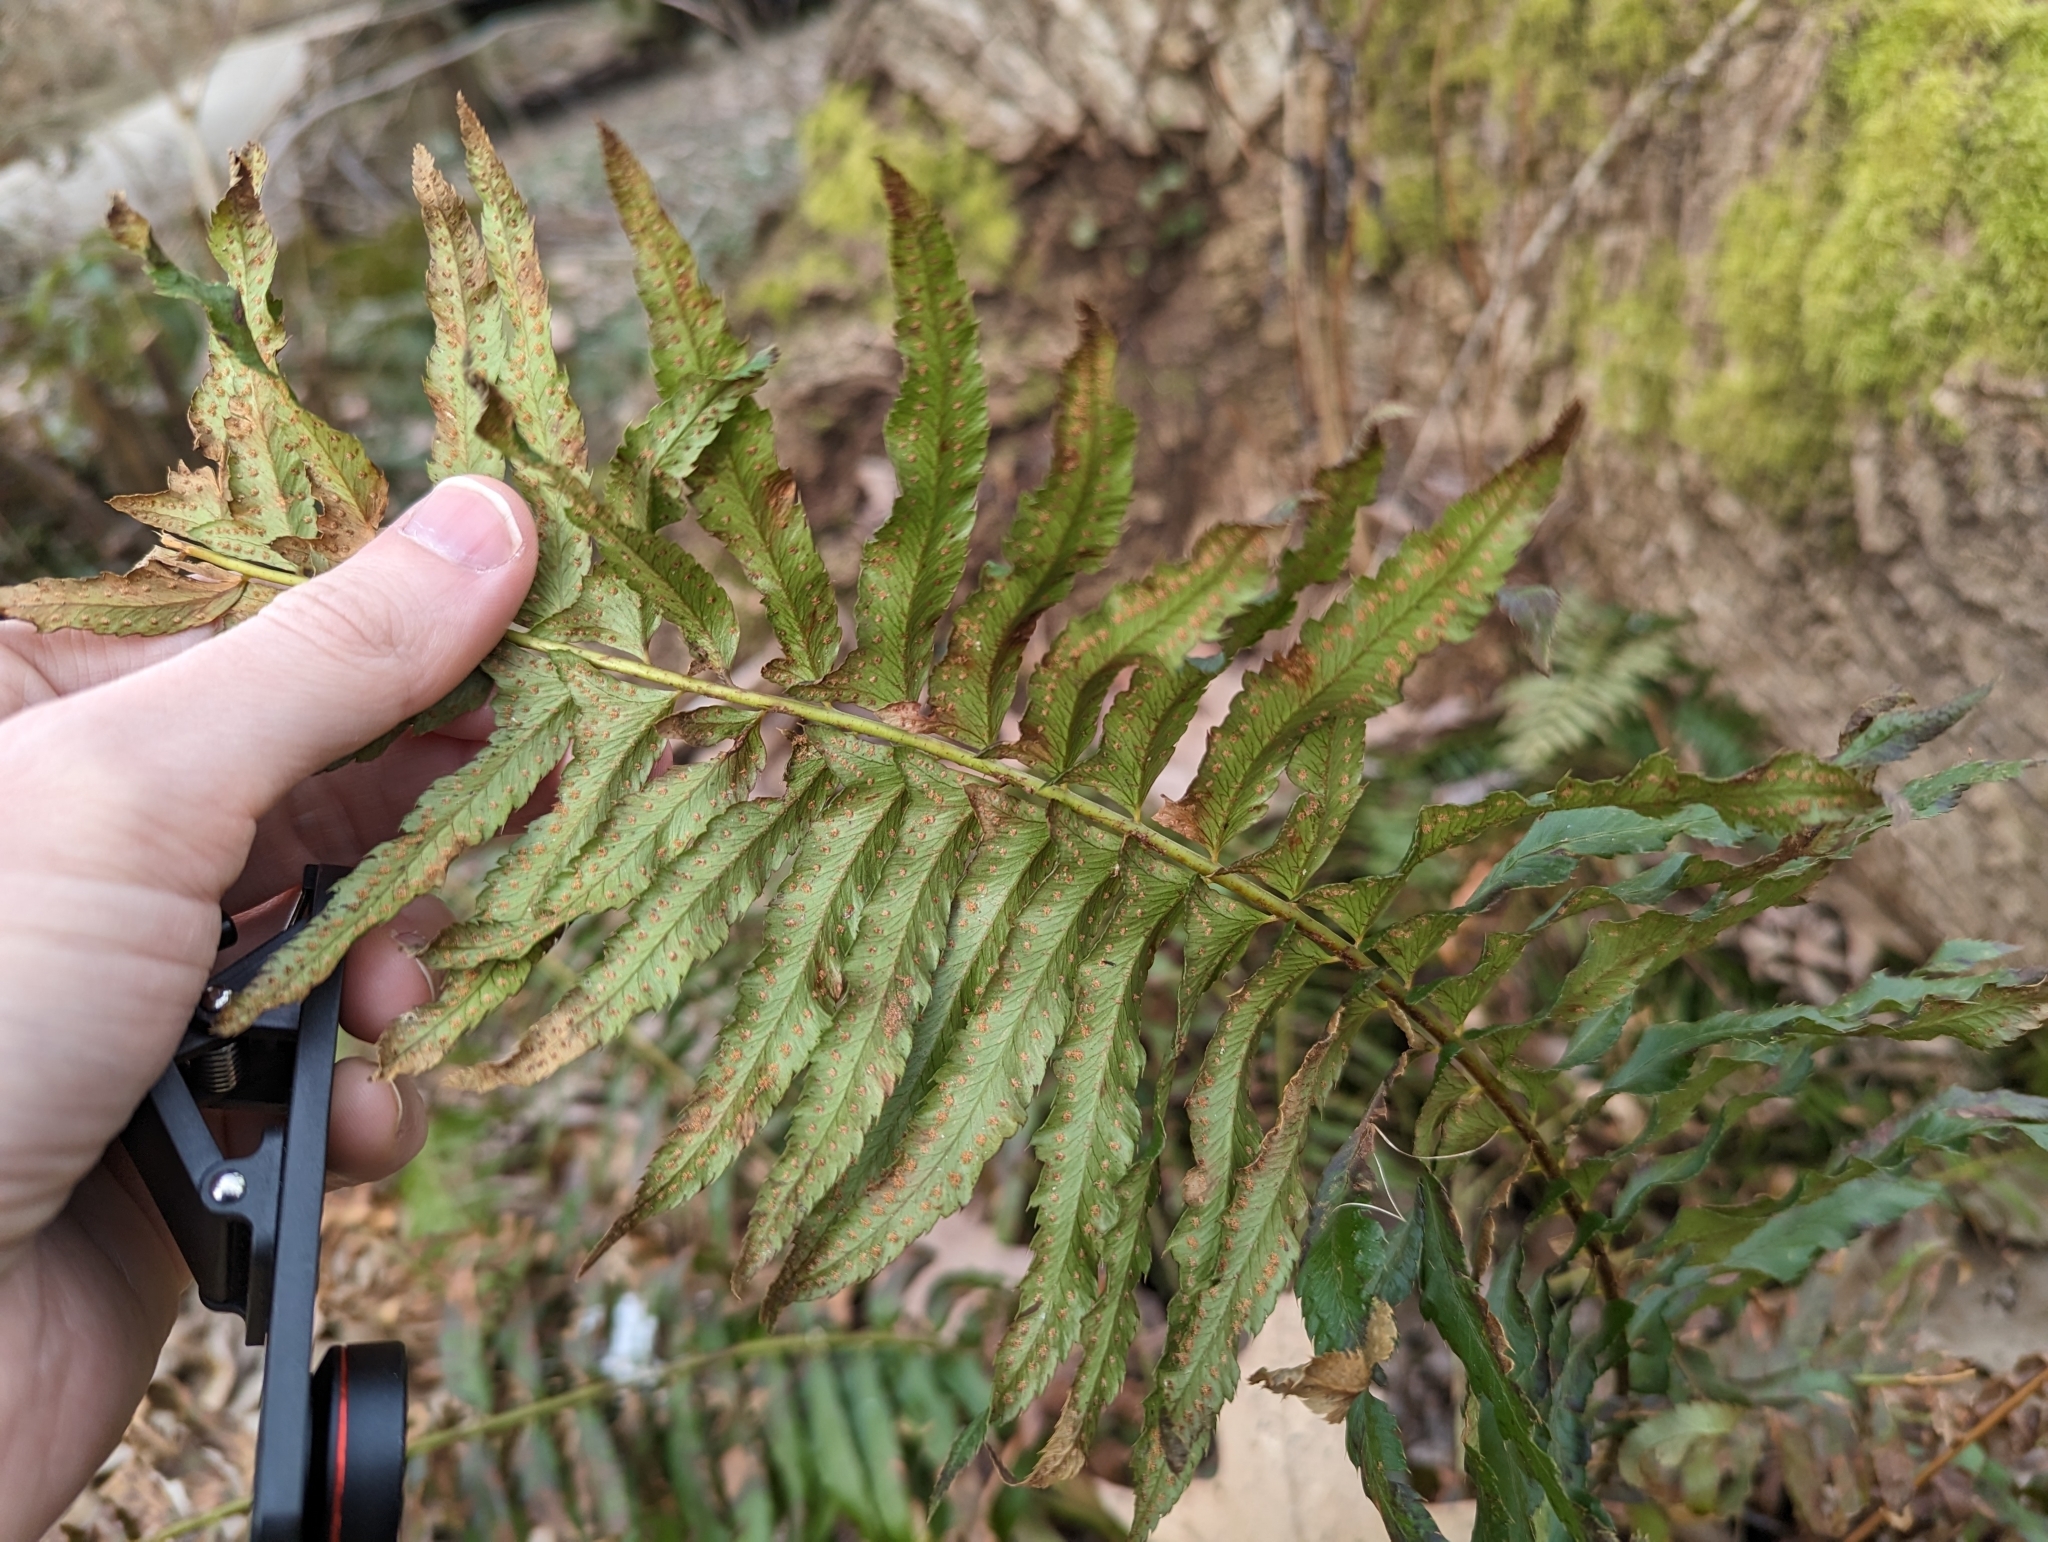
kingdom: Plantae
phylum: Tracheophyta
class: Polypodiopsida
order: Polypodiales
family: Dryopteridaceae
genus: Polystichum
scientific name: Polystichum munitum
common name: Western sword-fern
